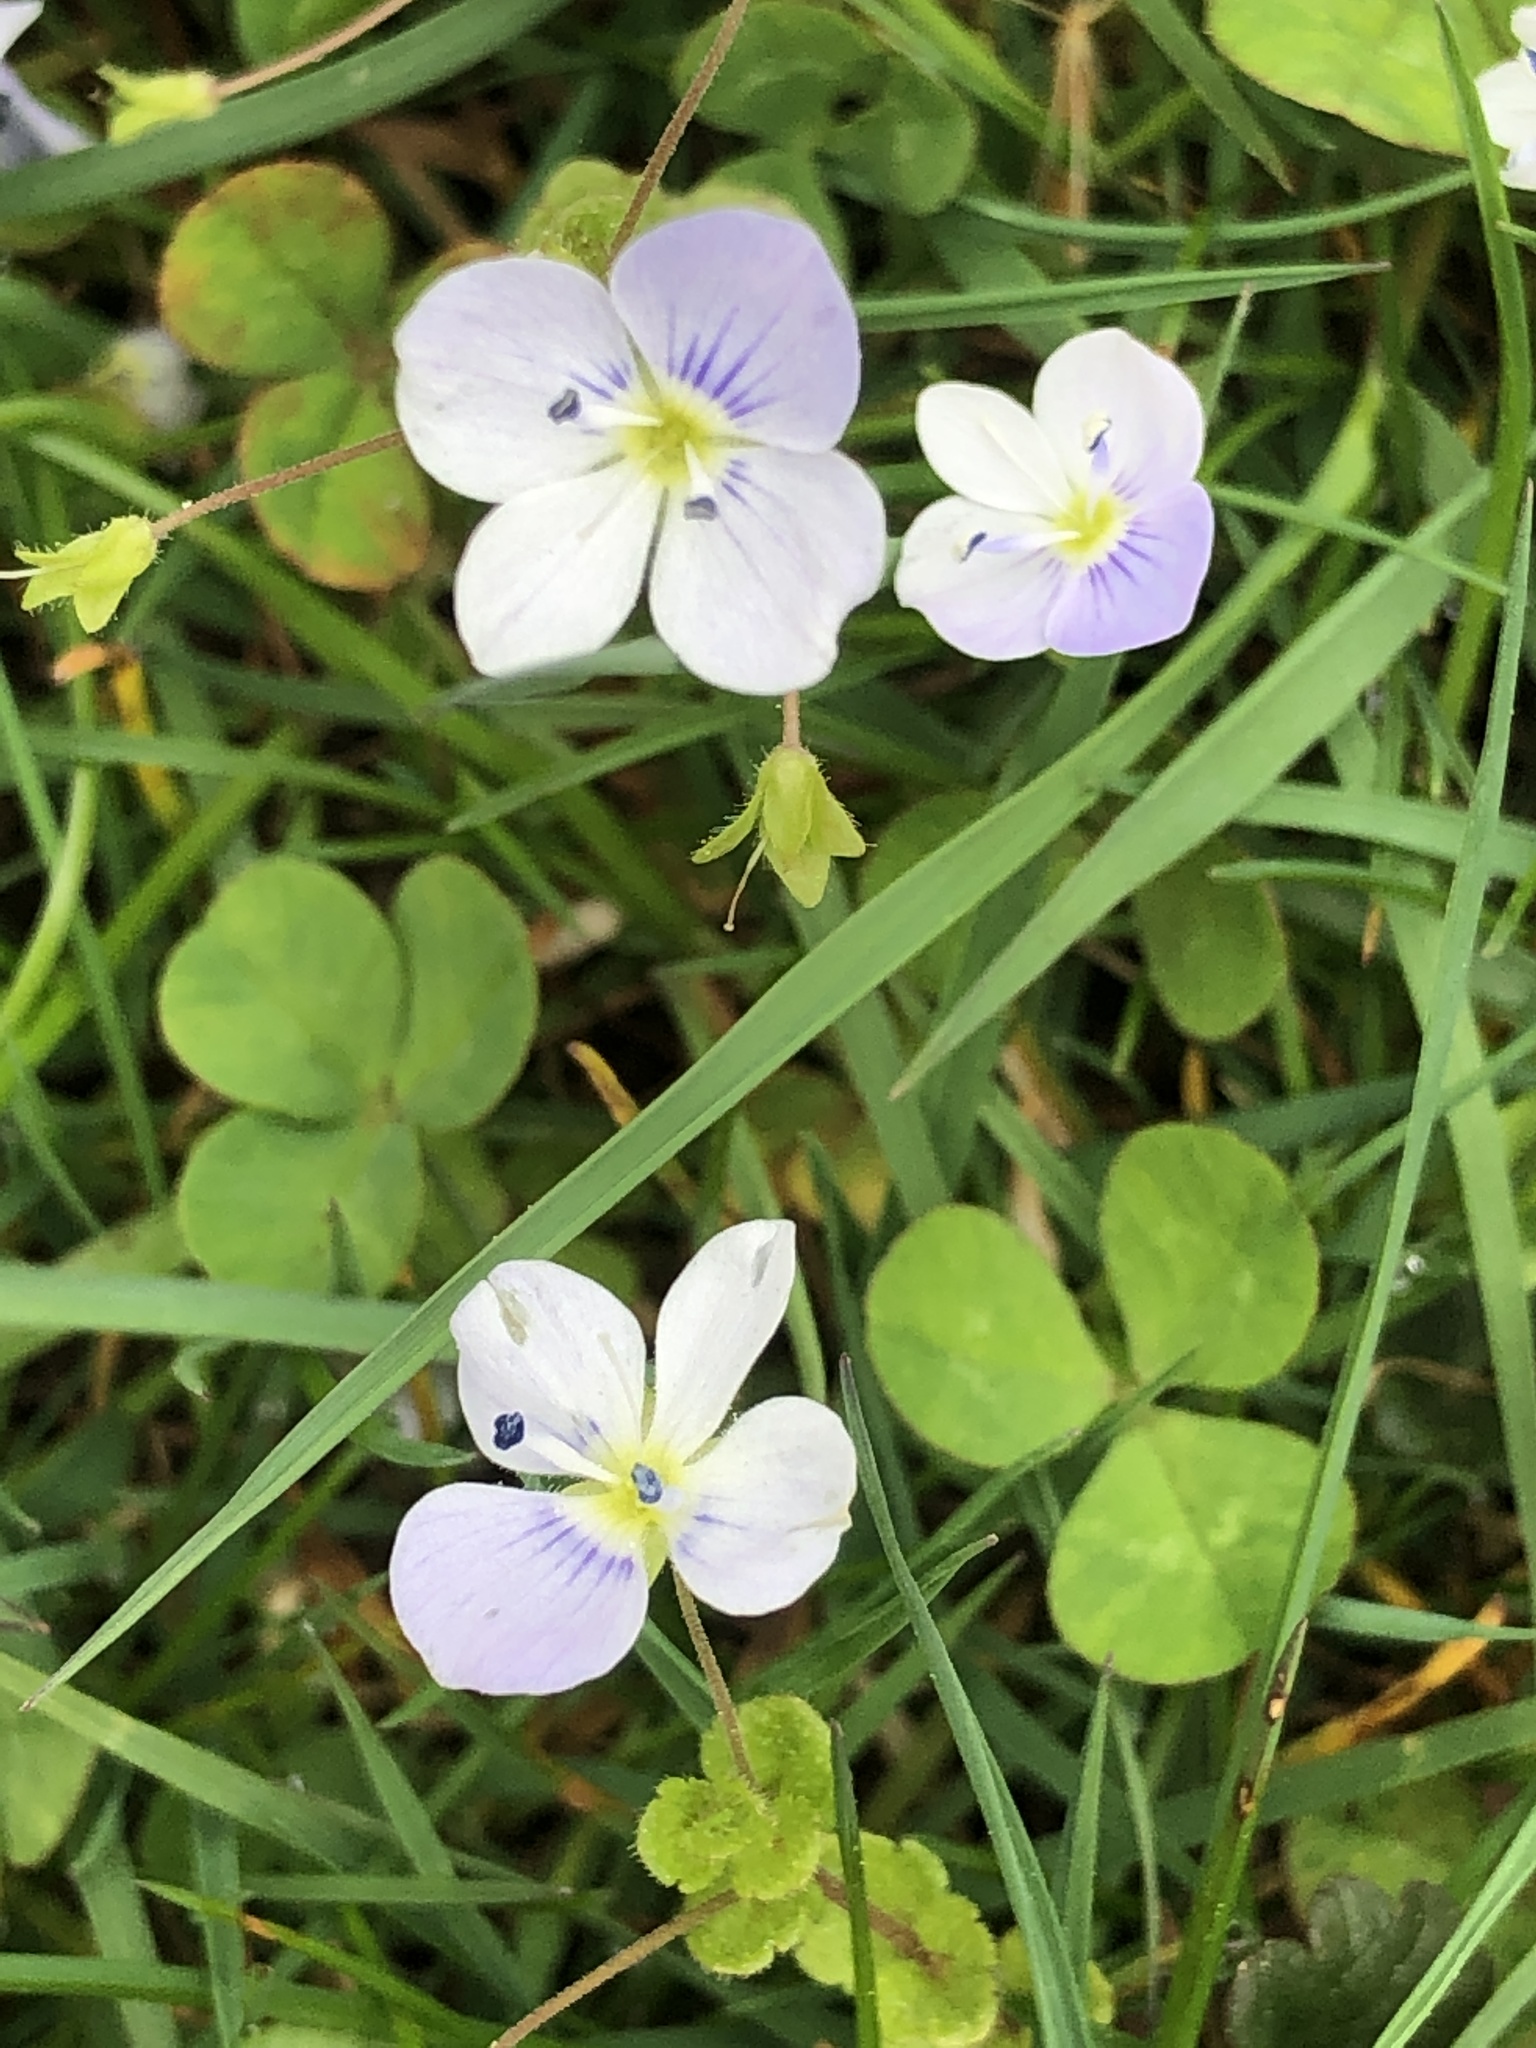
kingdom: Plantae
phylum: Tracheophyta
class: Magnoliopsida
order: Lamiales
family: Plantaginaceae
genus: Veronica
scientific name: Veronica filiformis
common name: Slender speedwell
